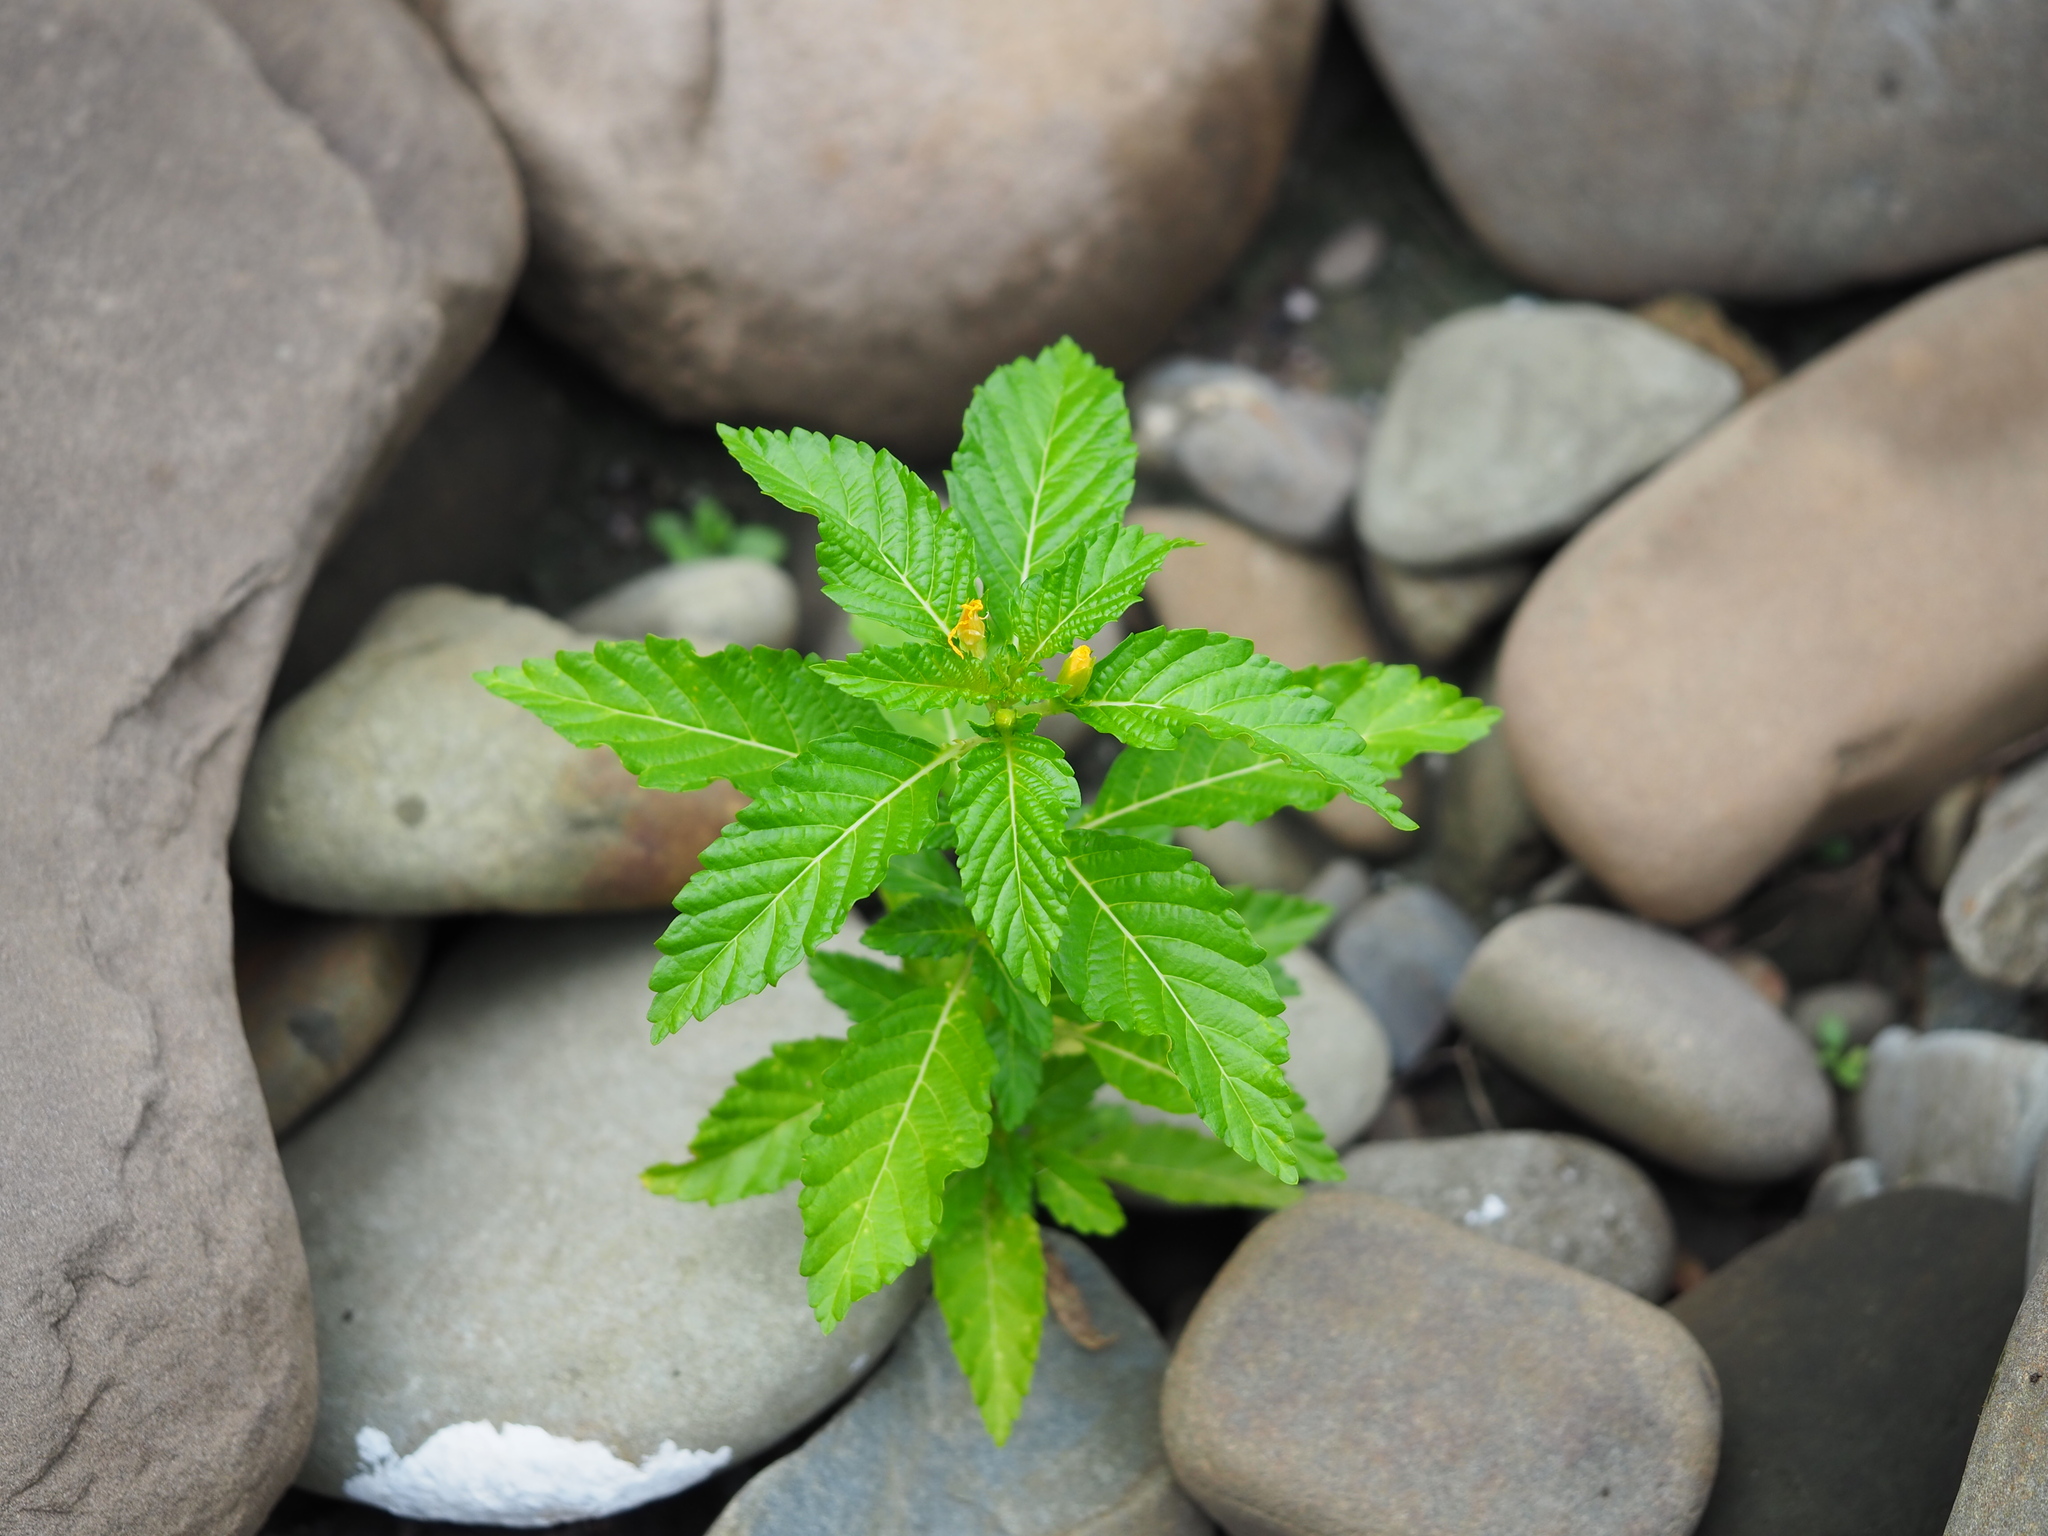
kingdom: Plantae
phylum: Tracheophyta
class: Magnoliopsida
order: Malpighiales
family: Turneraceae
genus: Turnera
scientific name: Turnera ulmifolia
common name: Ramgoat dashalong
